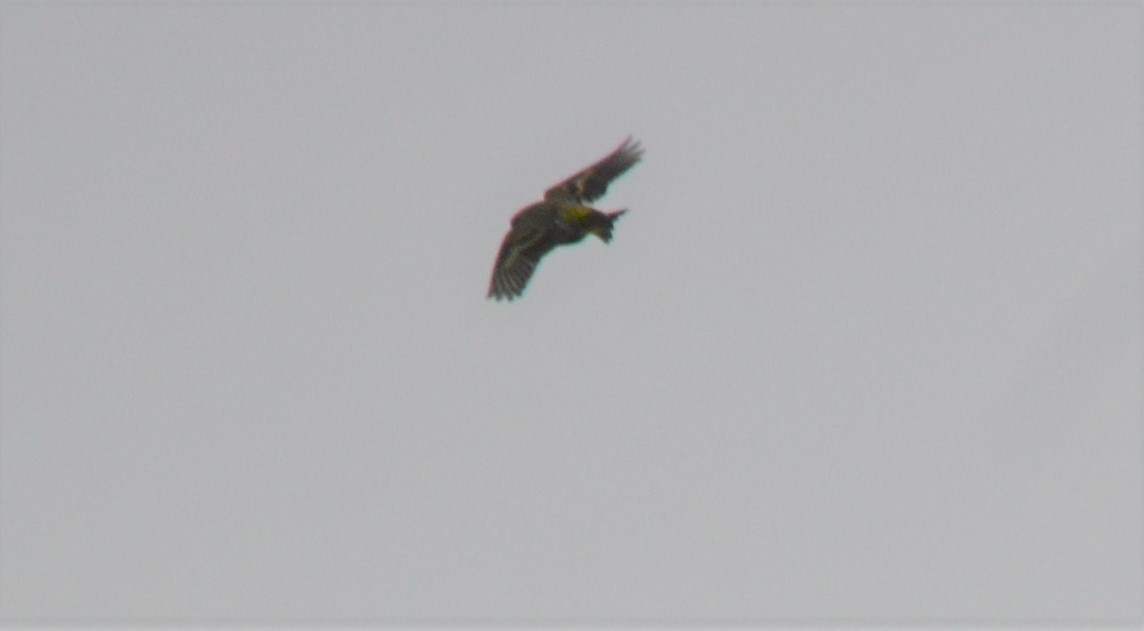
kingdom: Animalia
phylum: Chordata
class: Aves
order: Passeriformes
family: Fringillidae
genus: Spinus
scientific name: Spinus spinus
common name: Eurasian siskin
